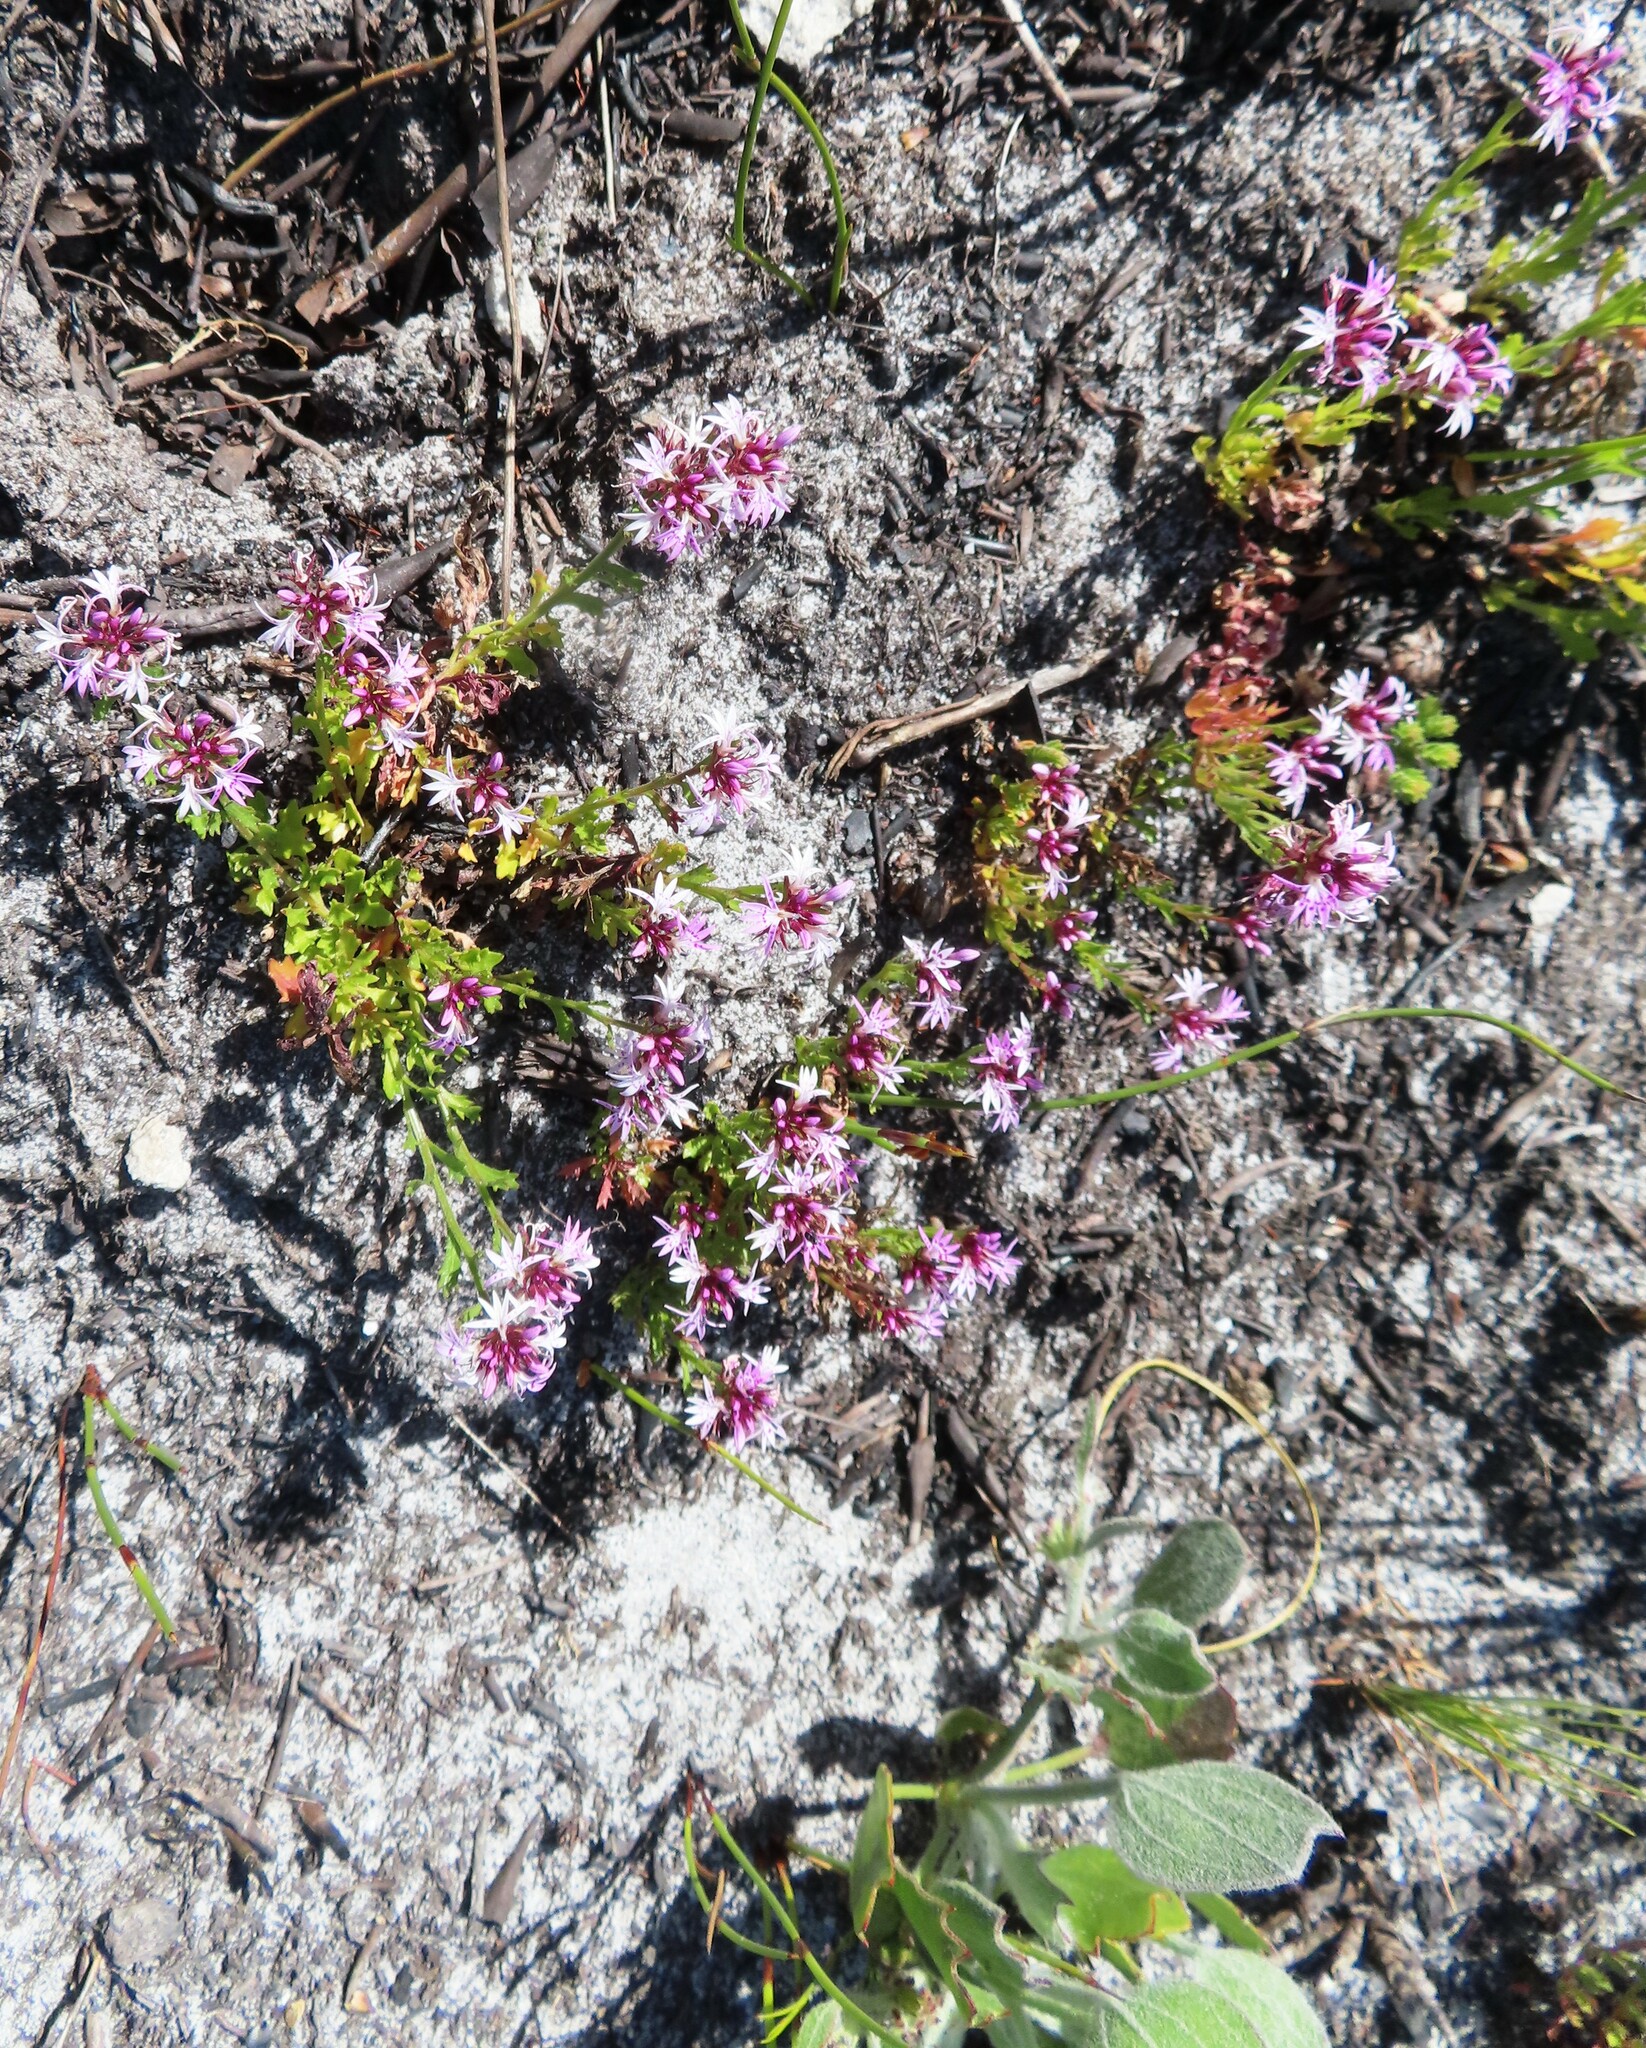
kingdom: Plantae
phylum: Tracheophyta
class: Magnoliopsida
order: Asterales
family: Campanulaceae
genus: Lobelia
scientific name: Lobelia jasionoides
